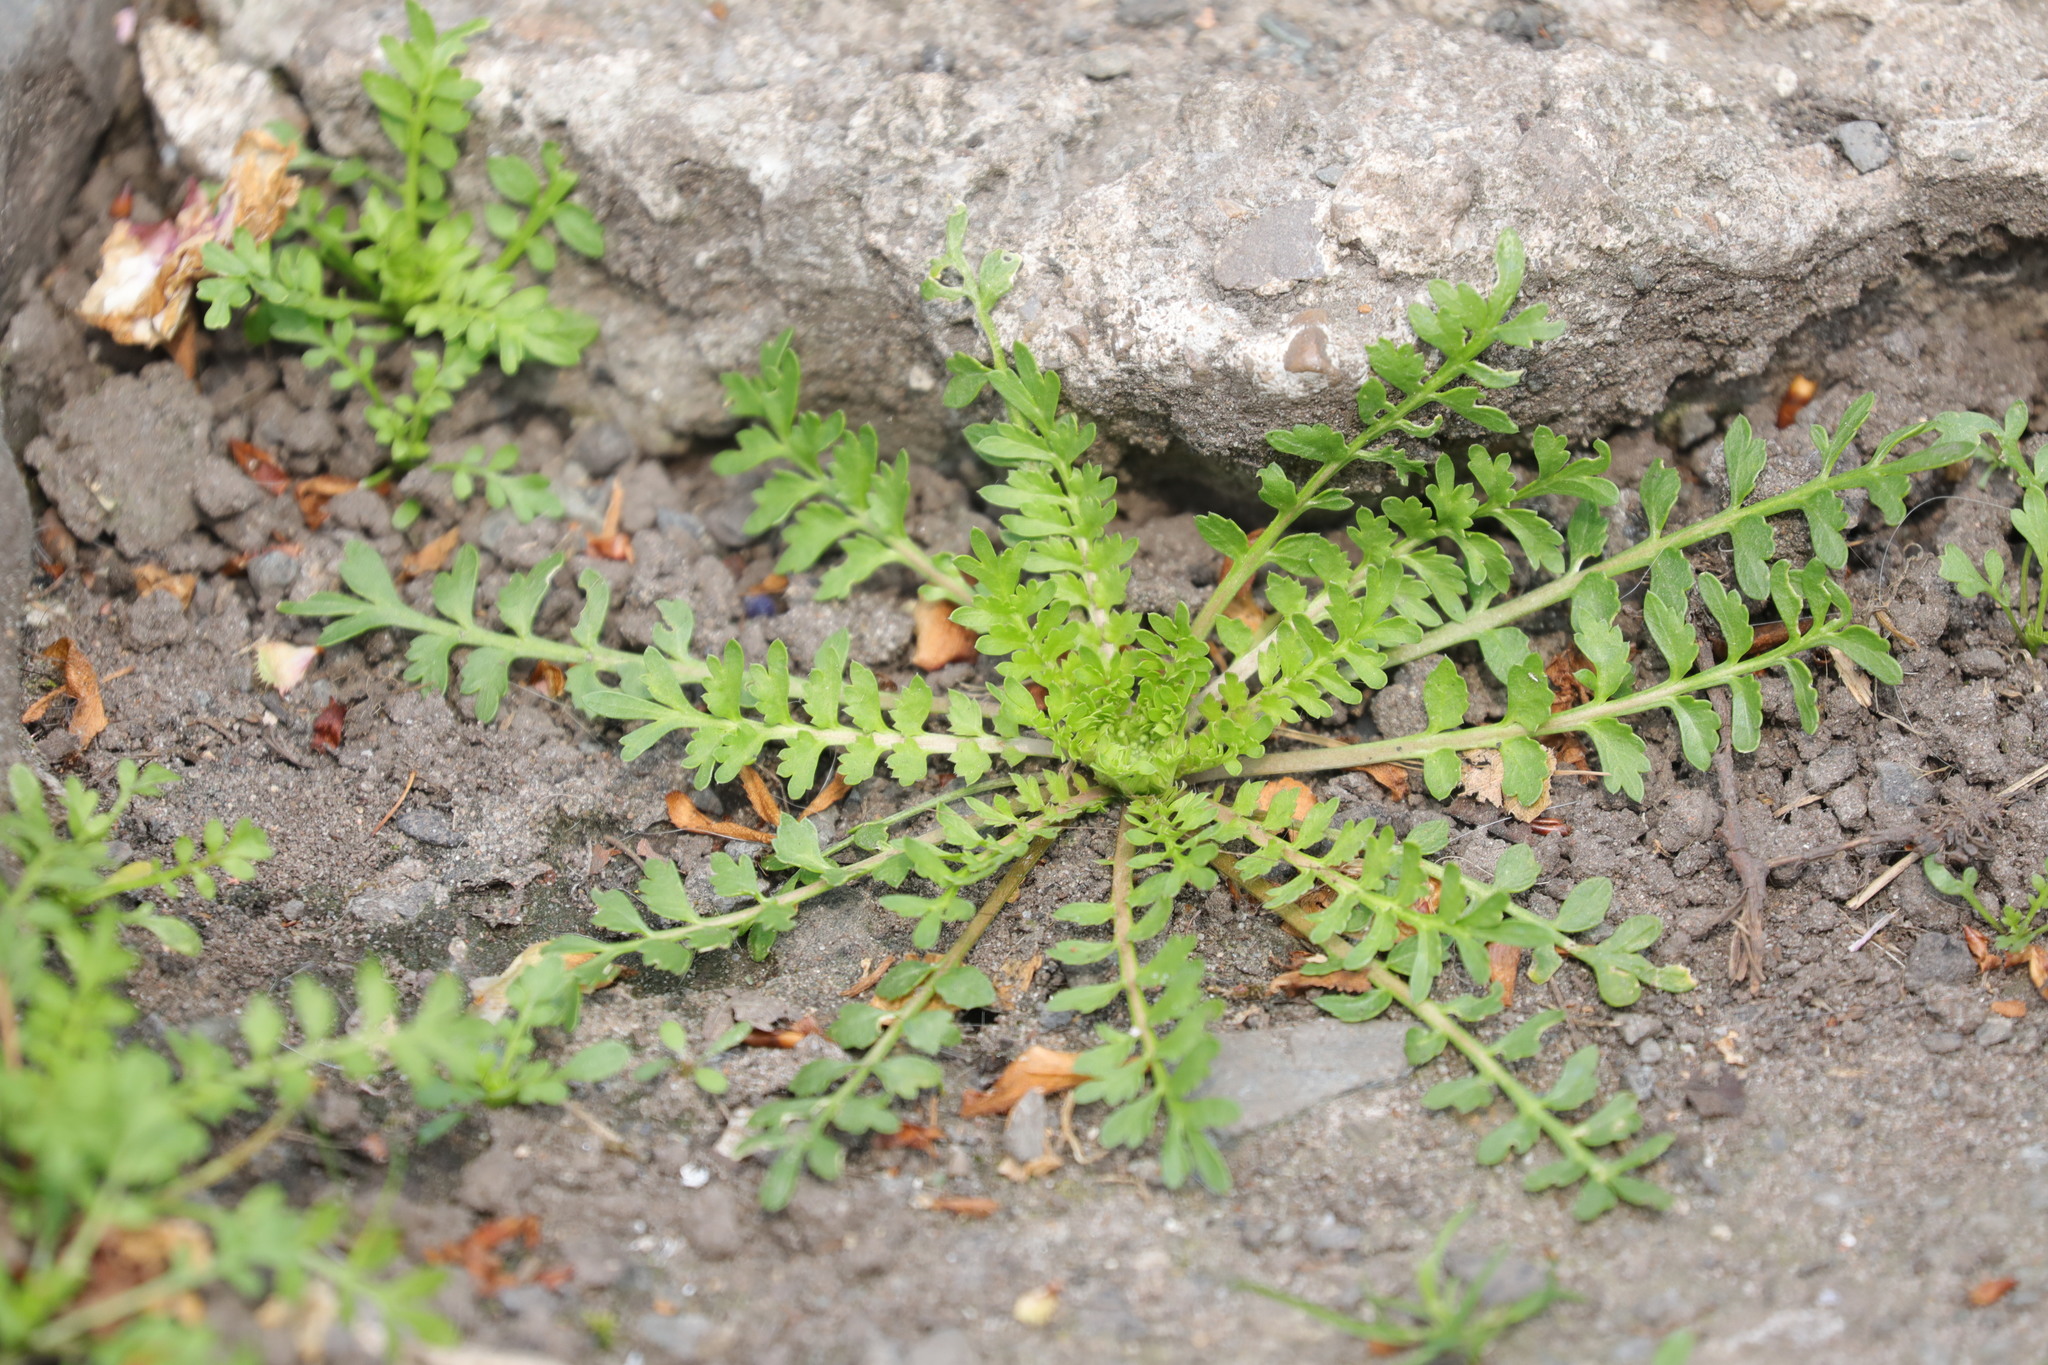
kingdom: Plantae
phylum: Tracheophyta
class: Magnoliopsida
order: Brassicales
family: Brassicaceae
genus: Lepidium
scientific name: Lepidium didymum
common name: Lesser swinecress
